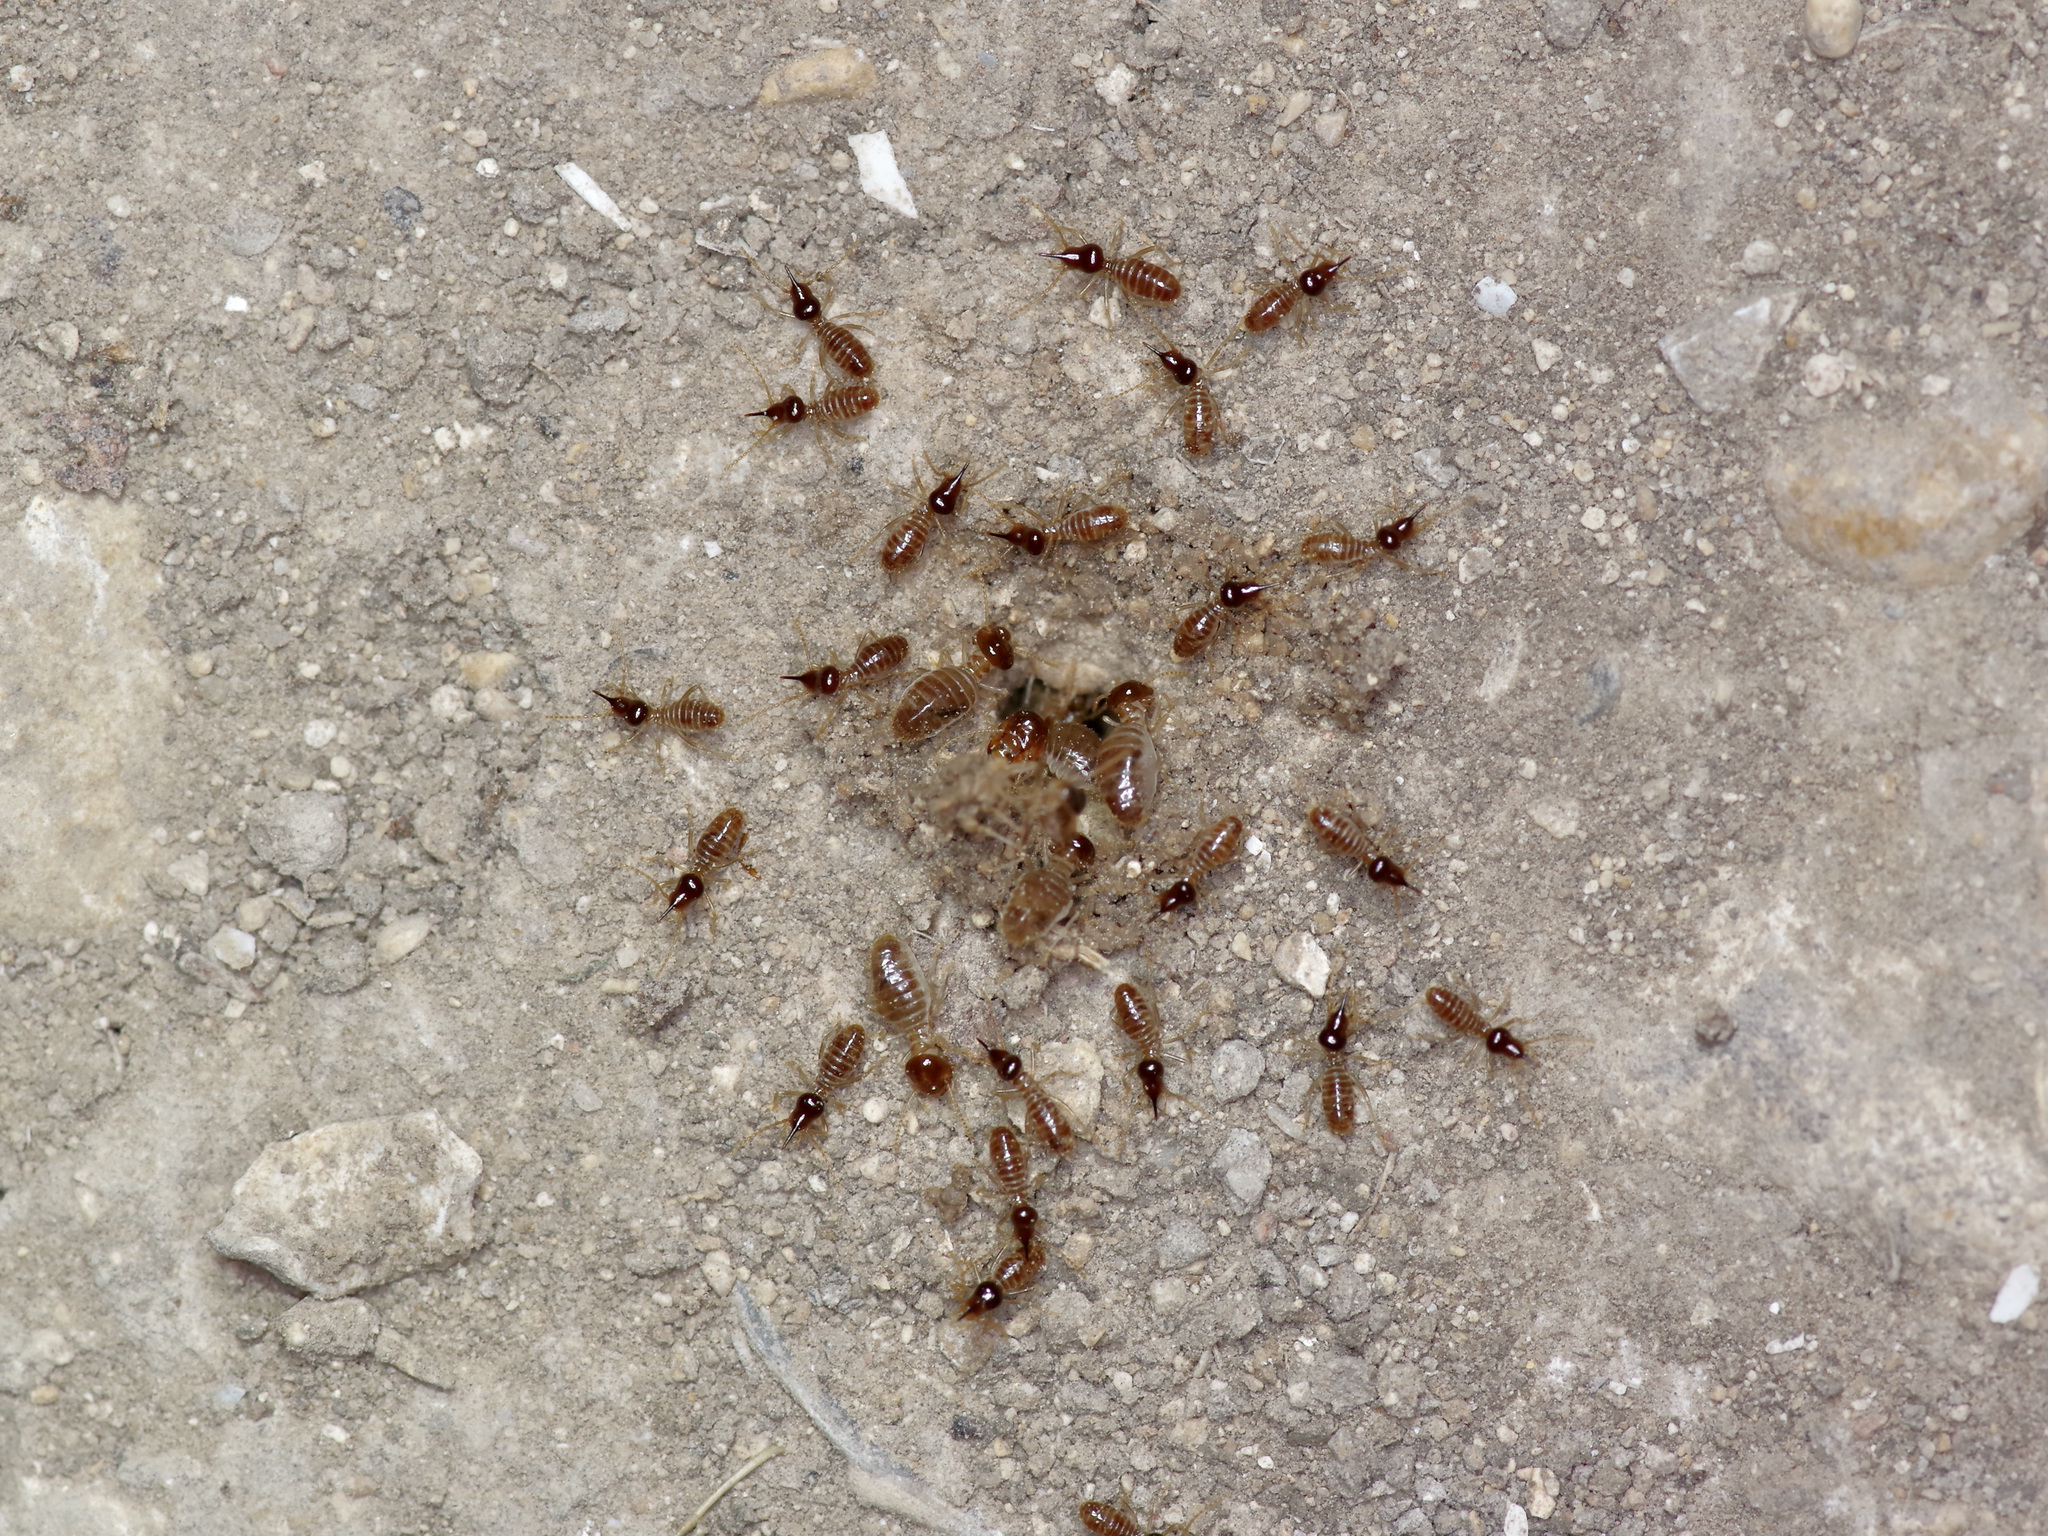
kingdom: Animalia
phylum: Arthropoda
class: Insecta
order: Blattodea
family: Termitidae
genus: Tenuirostritermes
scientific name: Tenuirostritermes cinereus
